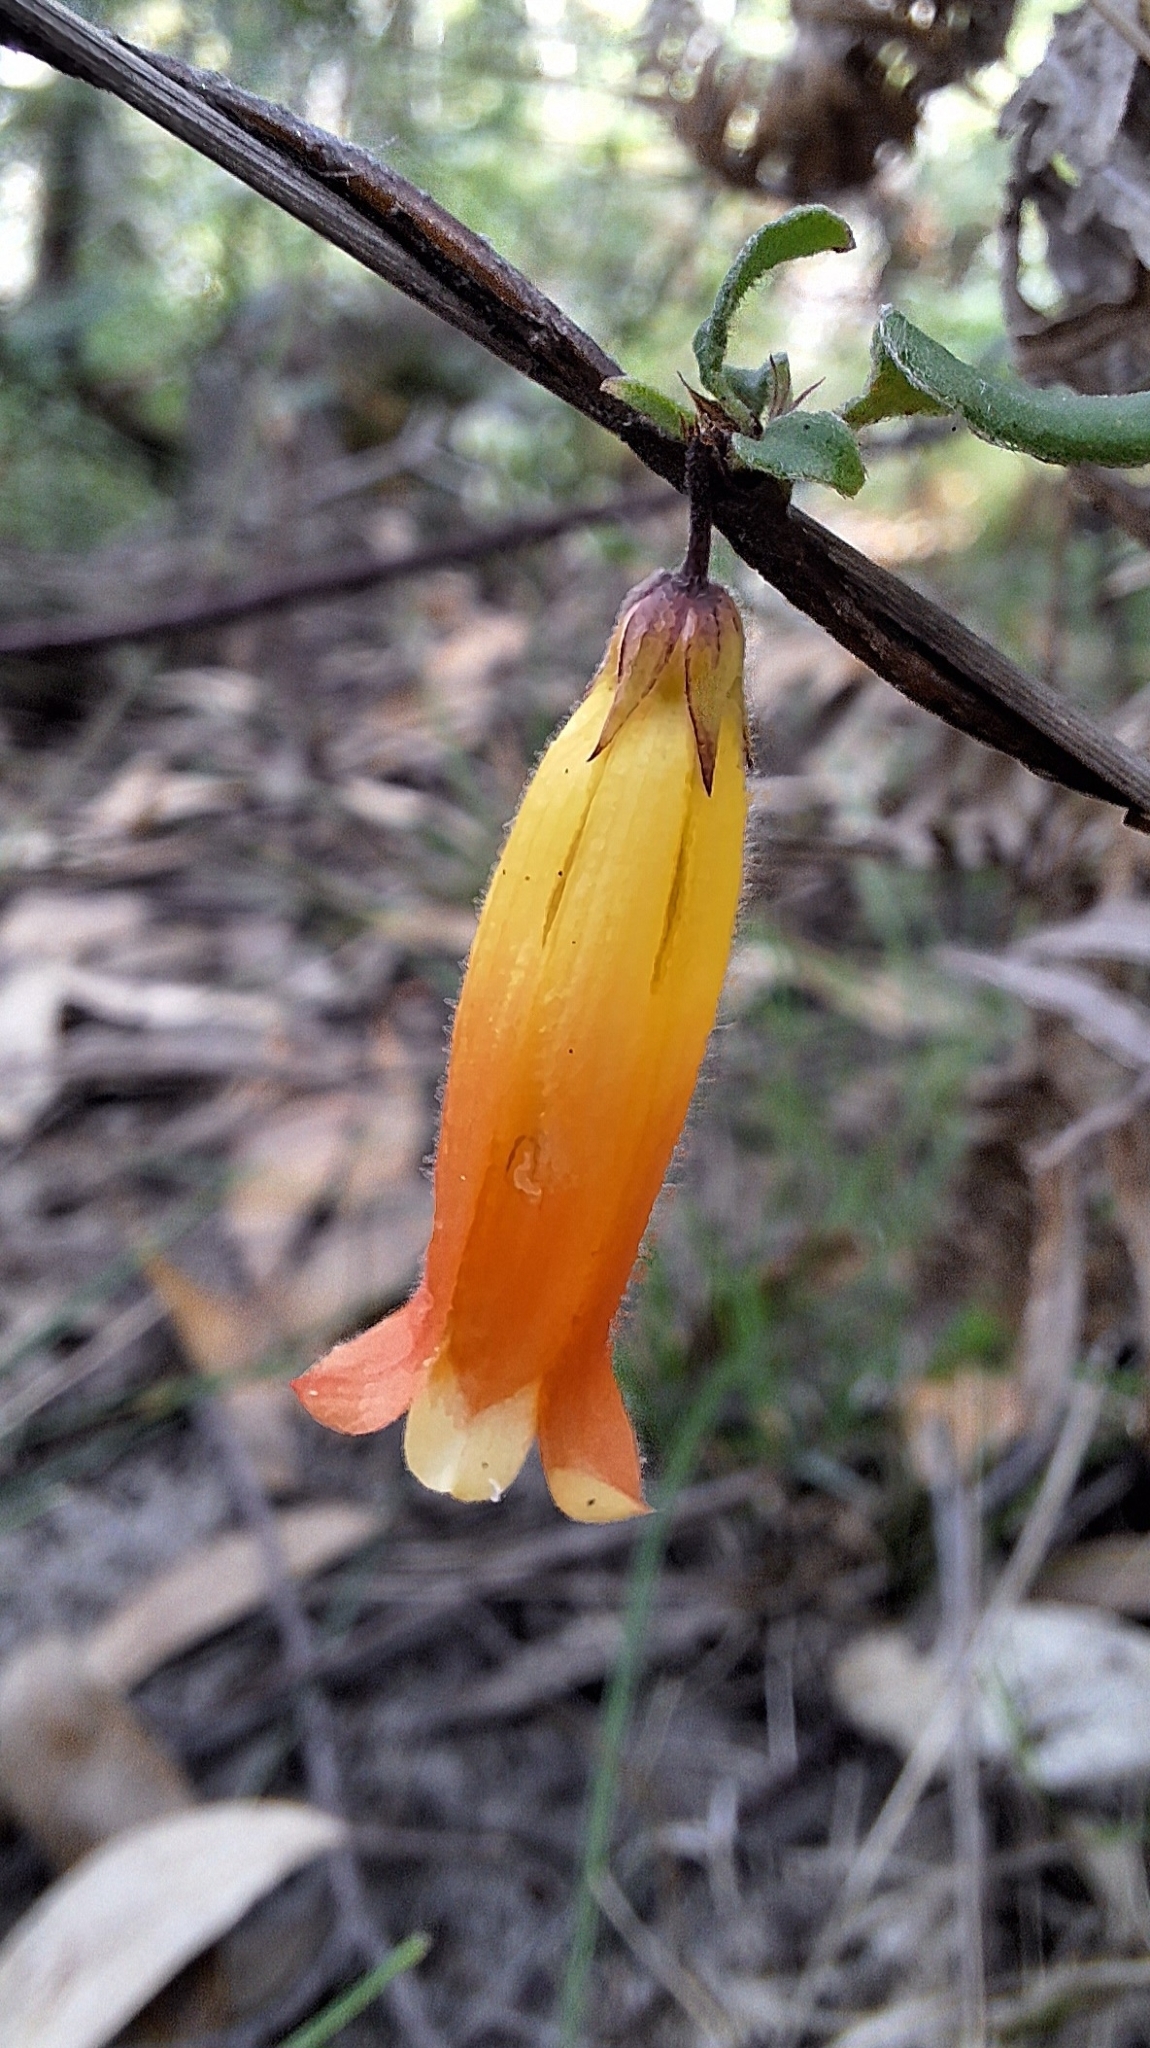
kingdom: Plantae
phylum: Tracheophyta
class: Magnoliopsida
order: Apiales
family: Pittosporaceae
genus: Marianthus
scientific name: Marianthus bignoniaceus
